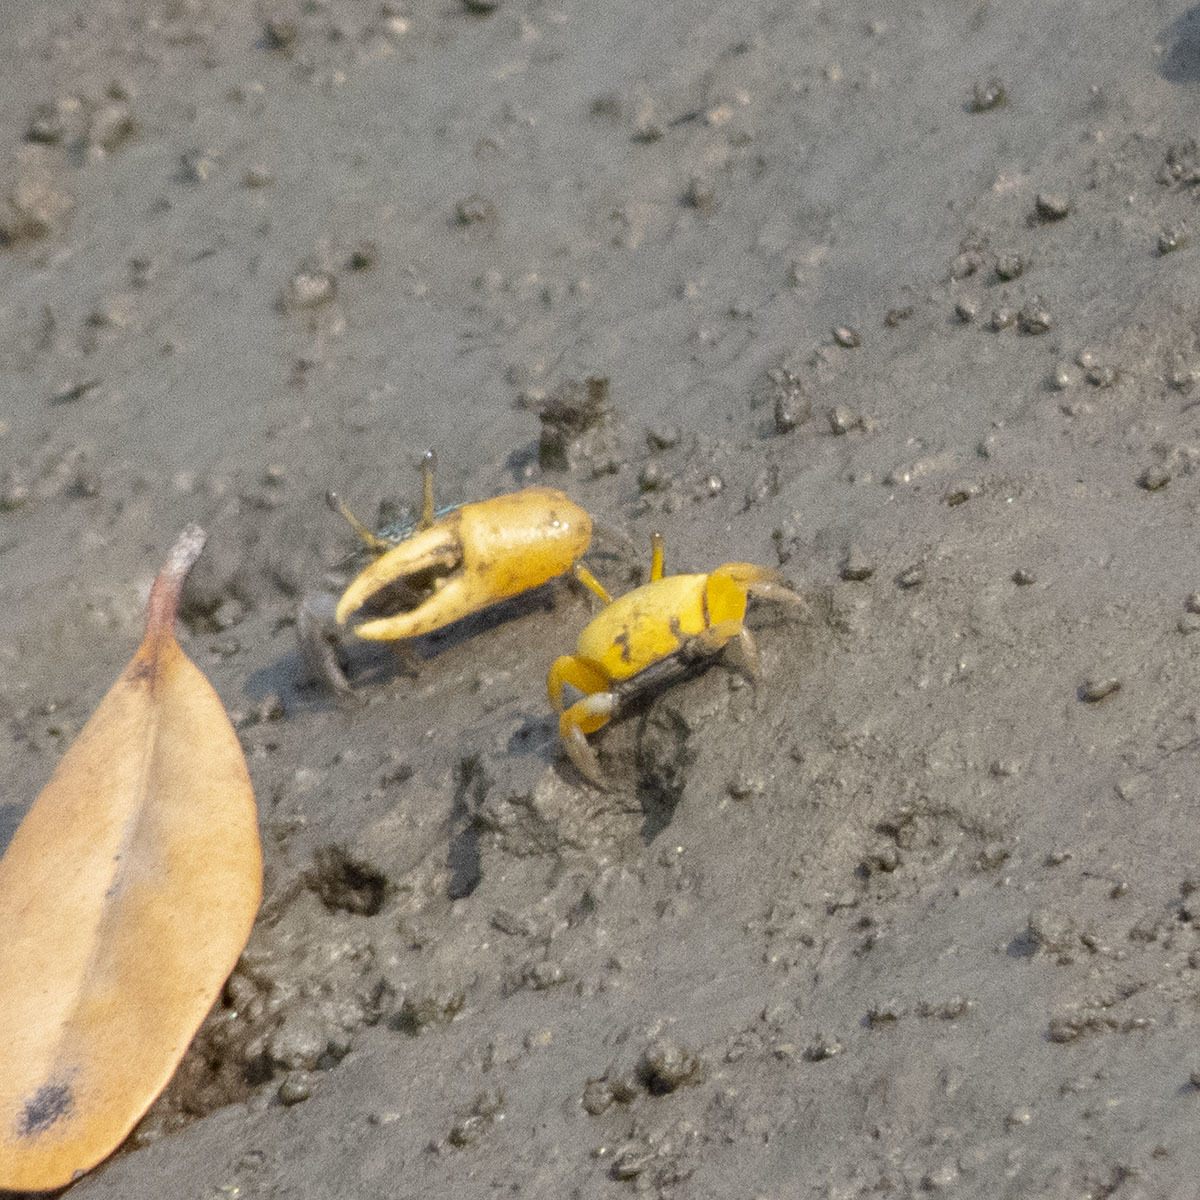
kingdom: Animalia
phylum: Arthropoda
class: Malacostraca
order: Decapoda
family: Ocypodidae
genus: Austruca
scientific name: Austruca variegata
